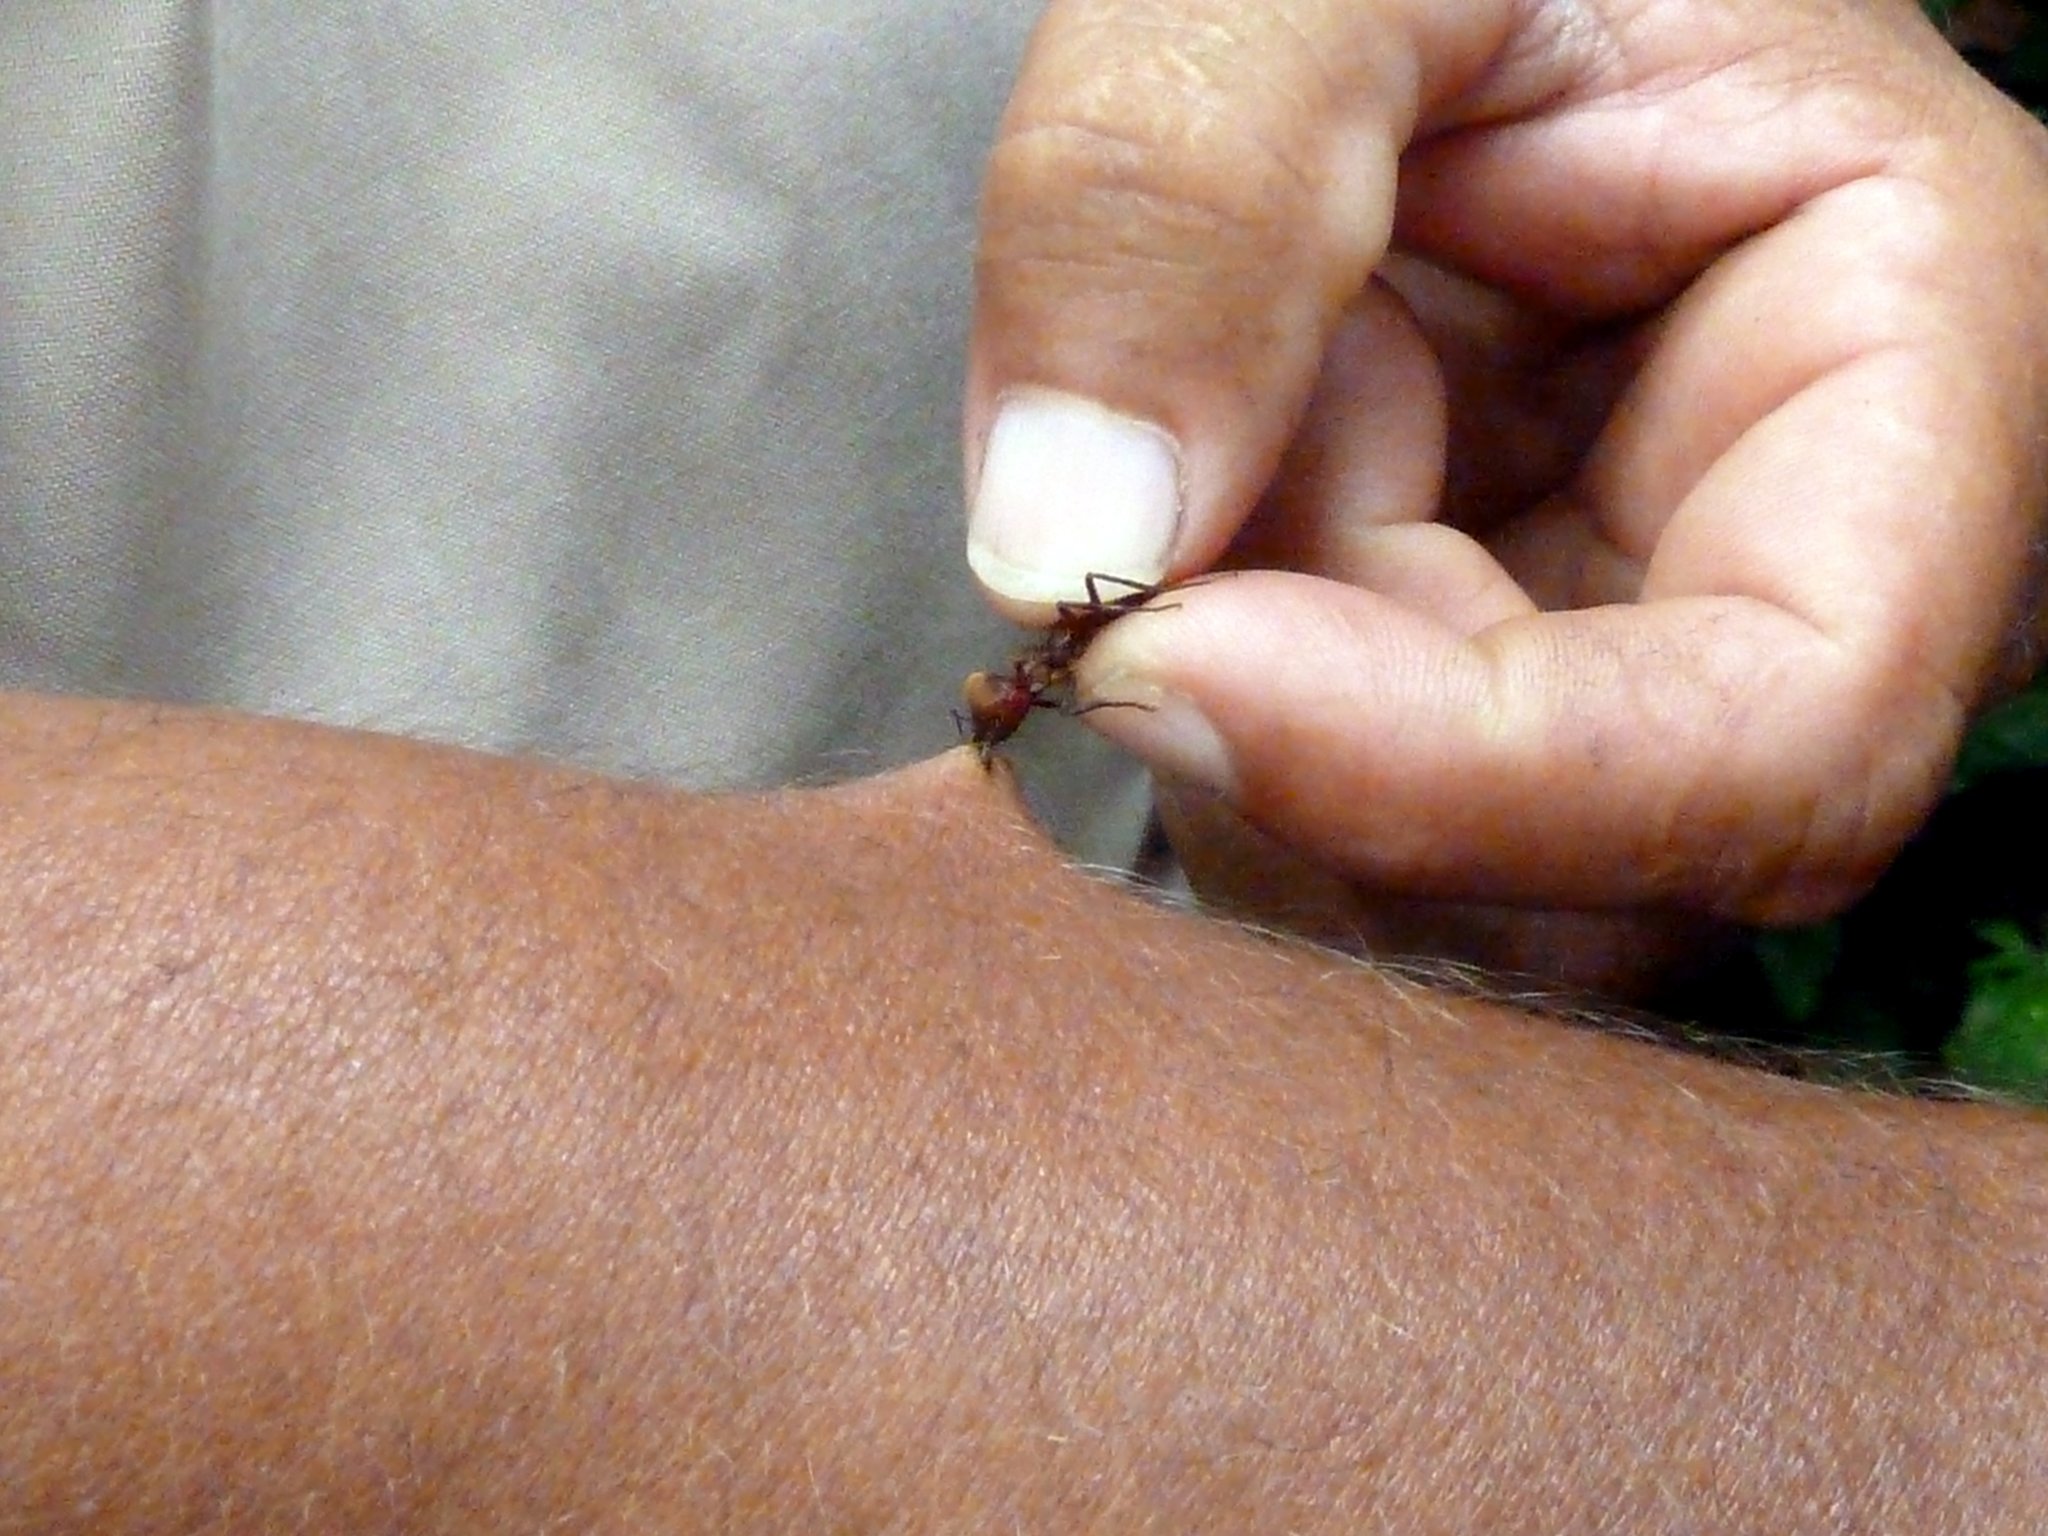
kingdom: Animalia
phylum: Arthropoda
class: Insecta
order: Hymenoptera
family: Formicidae
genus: Atta
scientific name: Atta cephalotes
